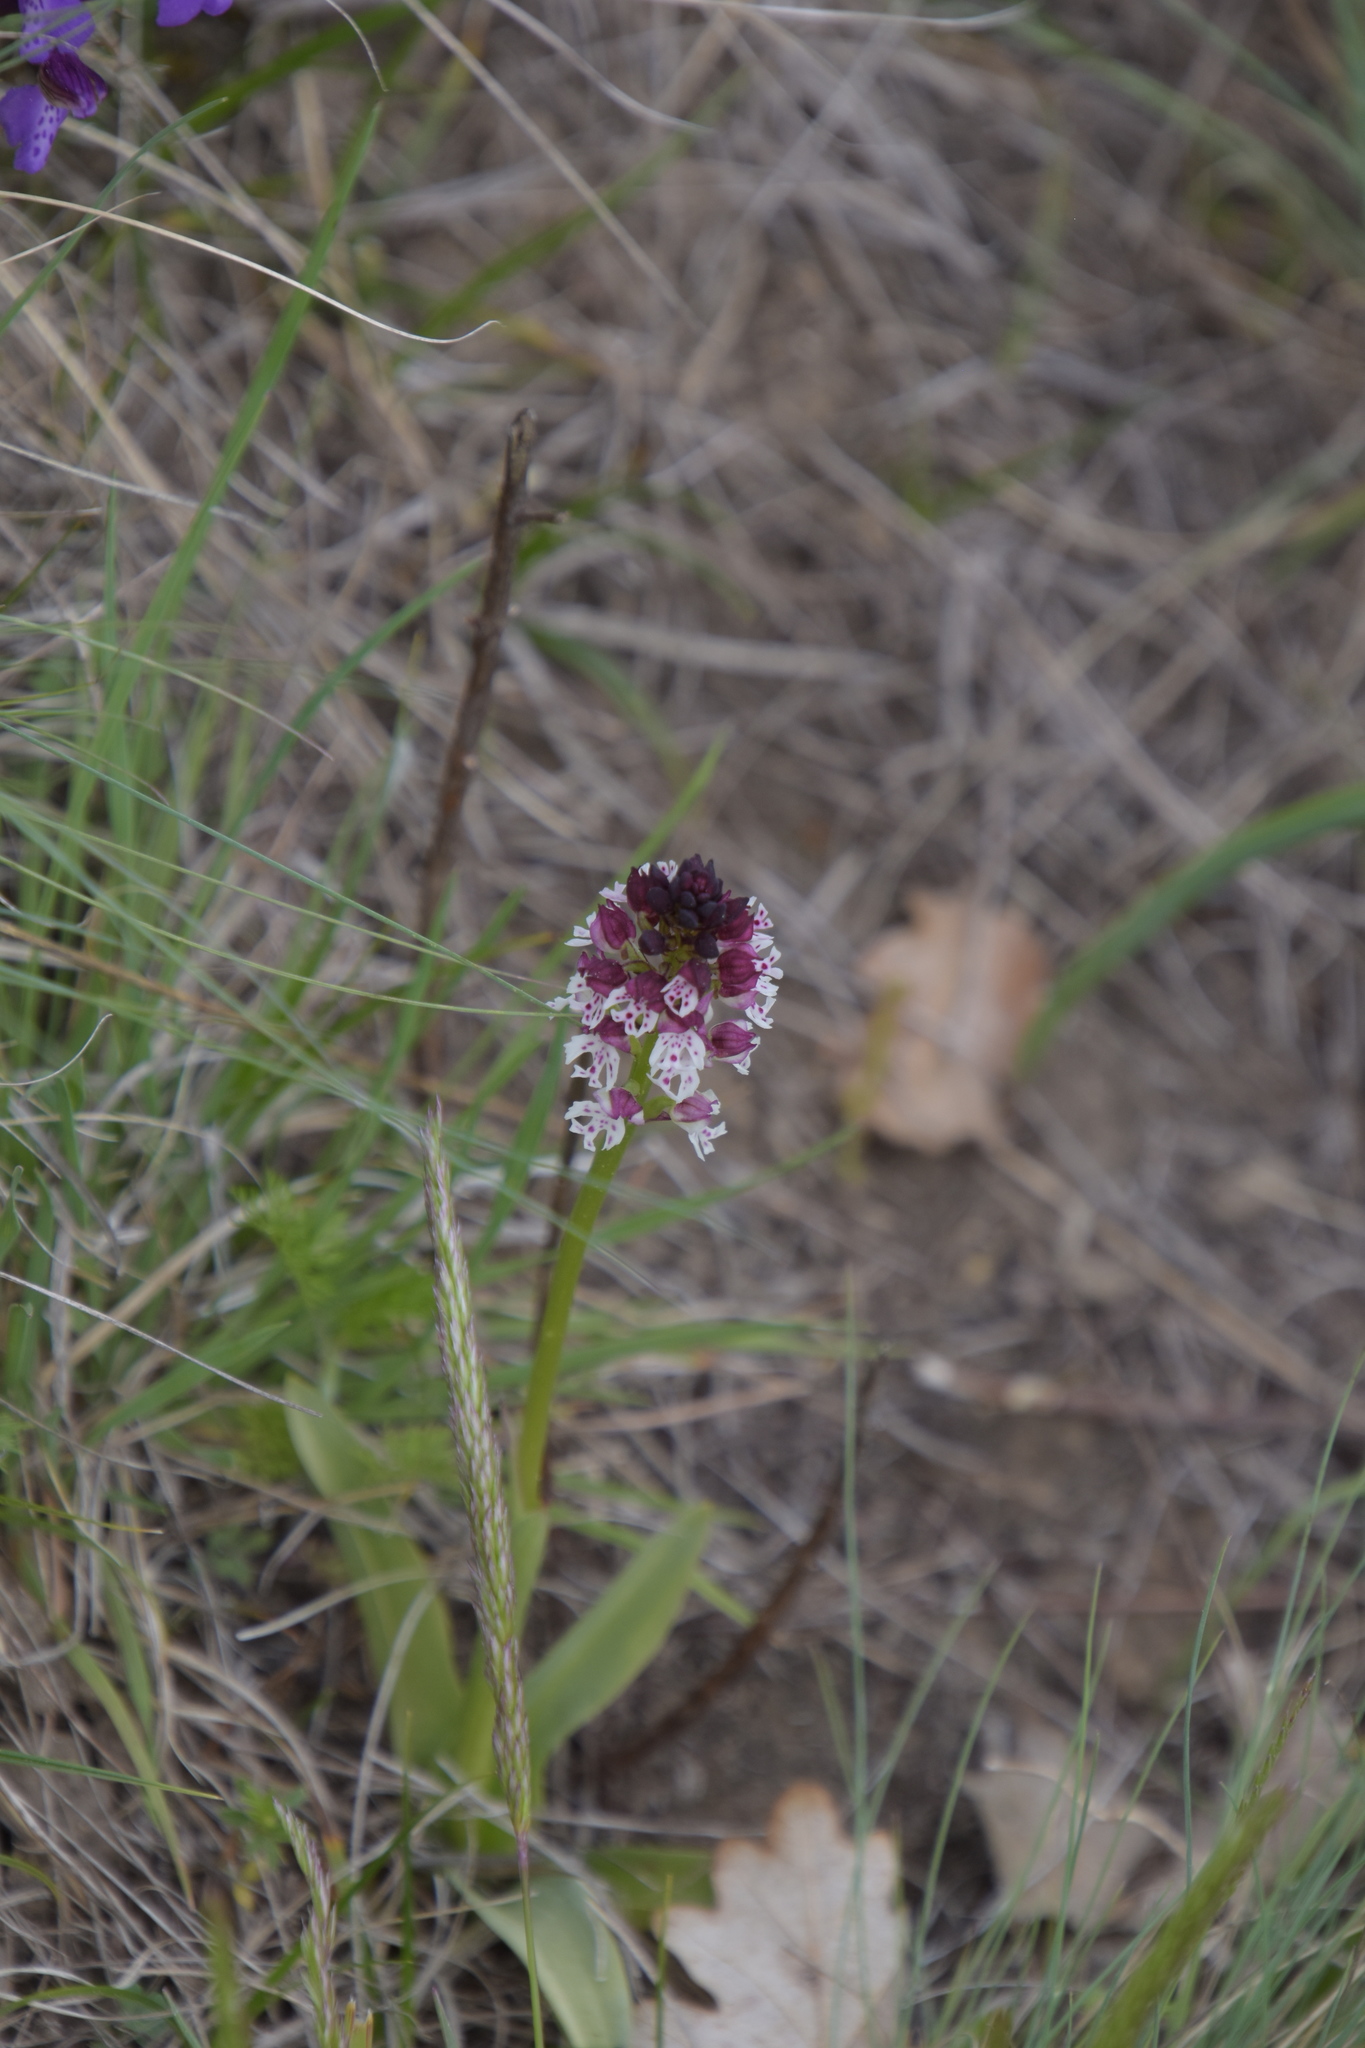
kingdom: Plantae
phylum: Tracheophyta
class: Liliopsida
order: Asparagales
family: Orchidaceae
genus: Neotinea
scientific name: Neotinea ustulata
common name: Burnt orchid
